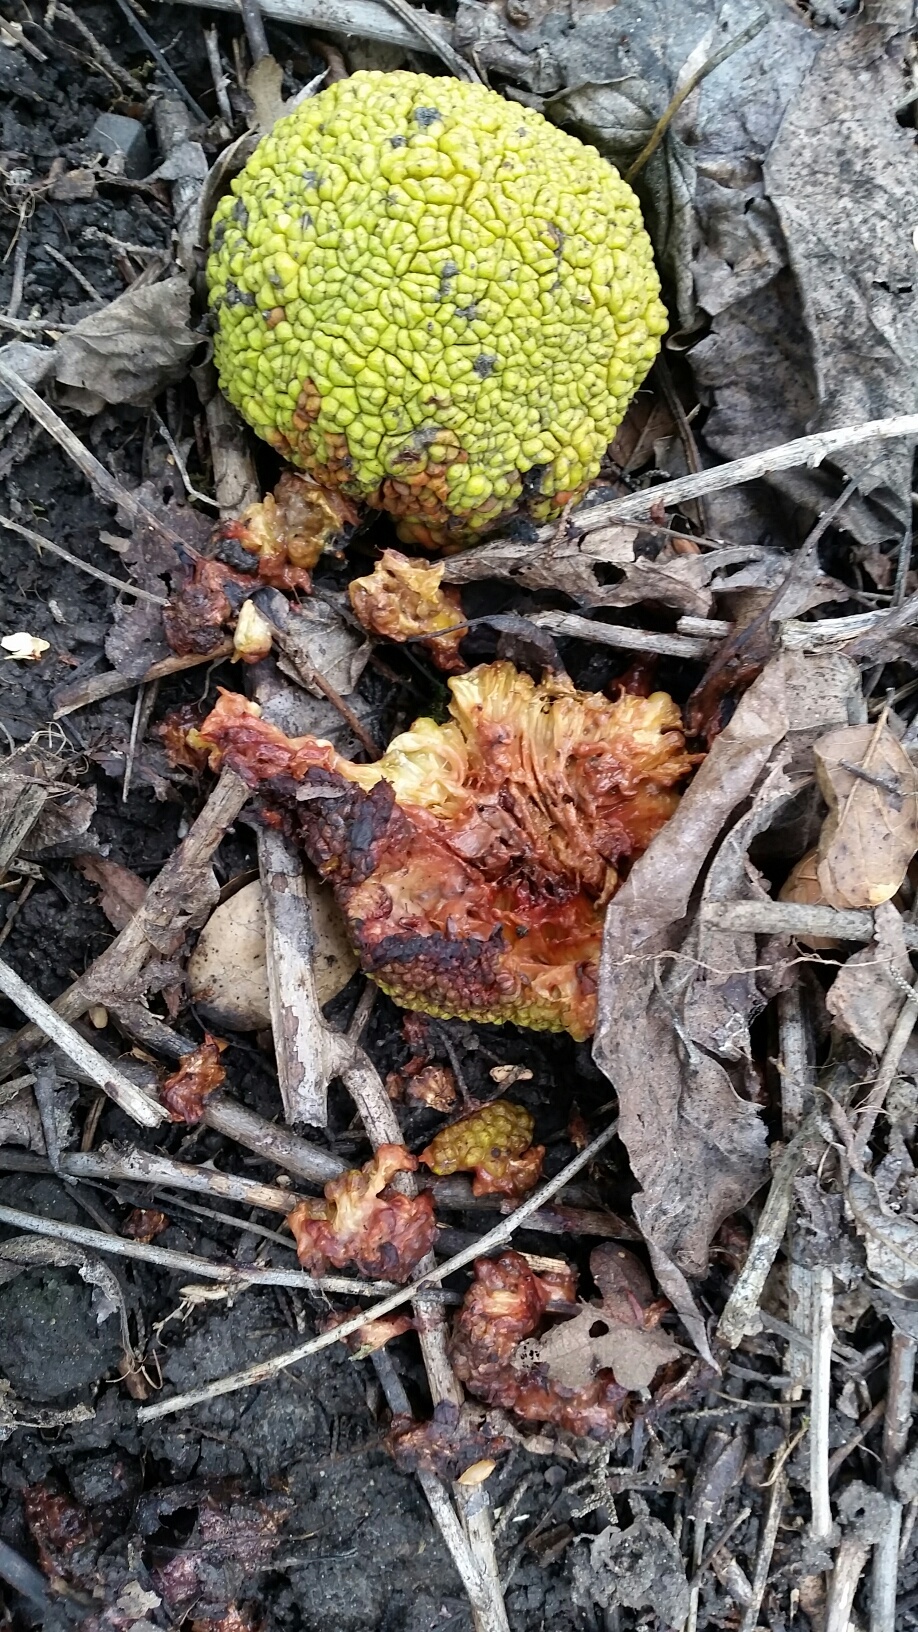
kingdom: Plantae
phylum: Tracheophyta
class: Magnoliopsida
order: Rosales
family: Moraceae
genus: Maclura
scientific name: Maclura pomifera
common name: Osage-orange
